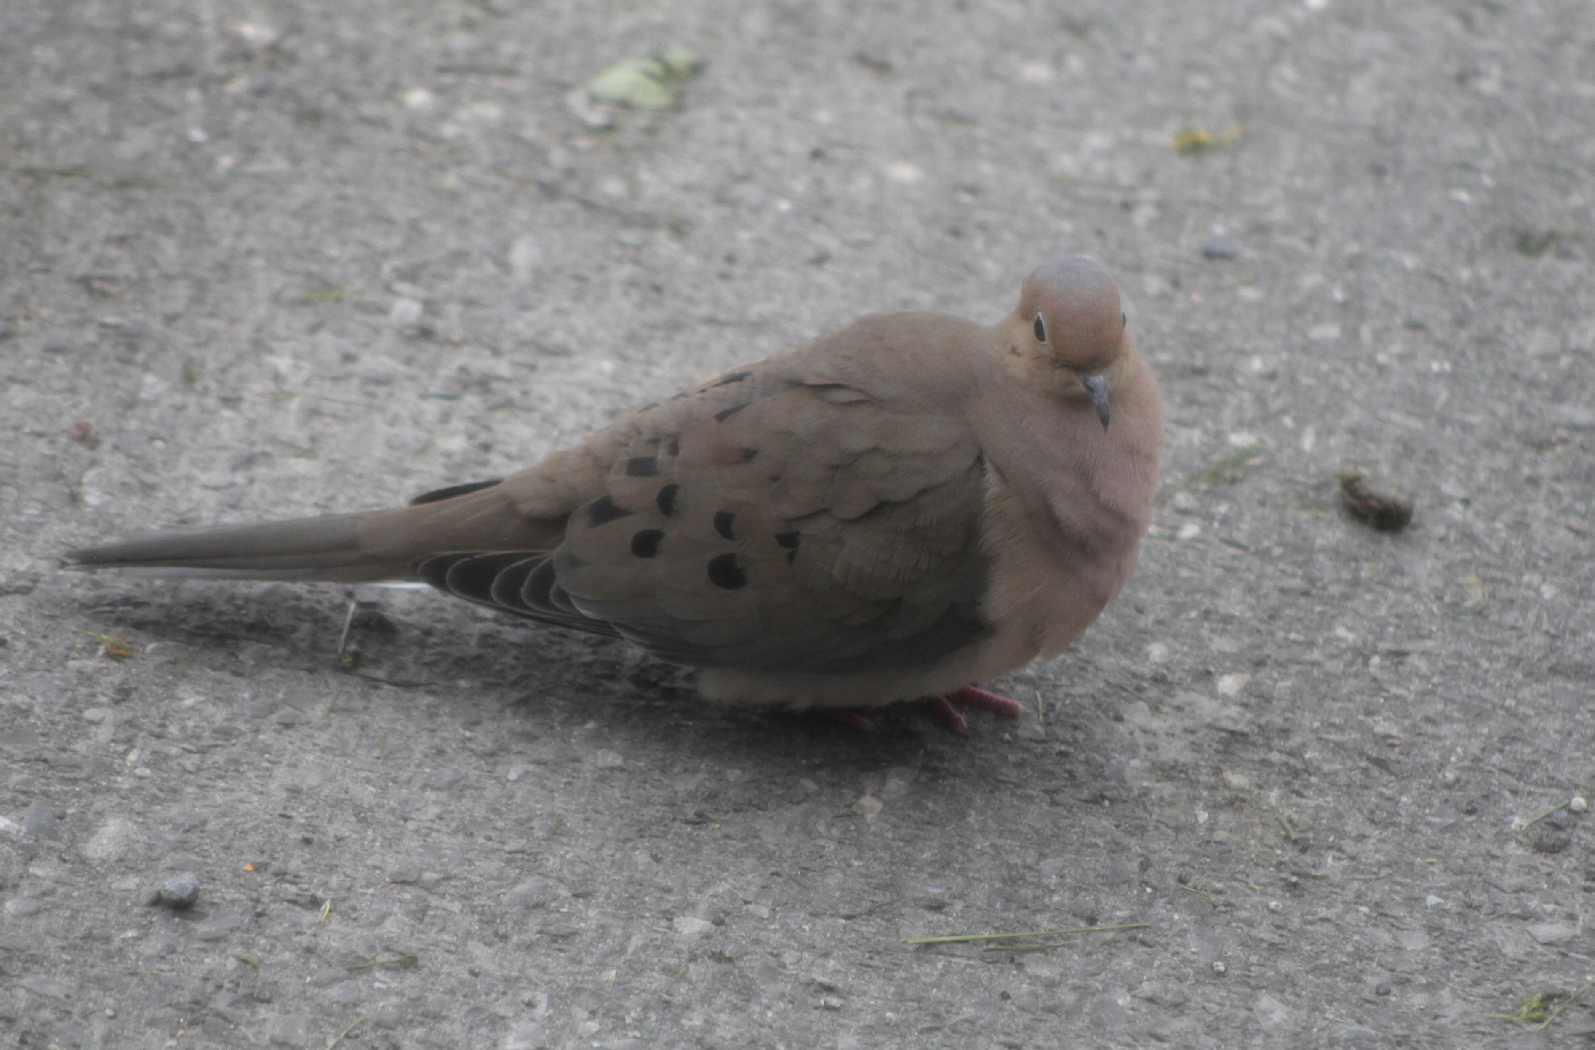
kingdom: Animalia
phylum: Chordata
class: Aves
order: Columbiformes
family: Columbidae
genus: Zenaida
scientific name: Zenaida macroura
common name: Mourning dove
